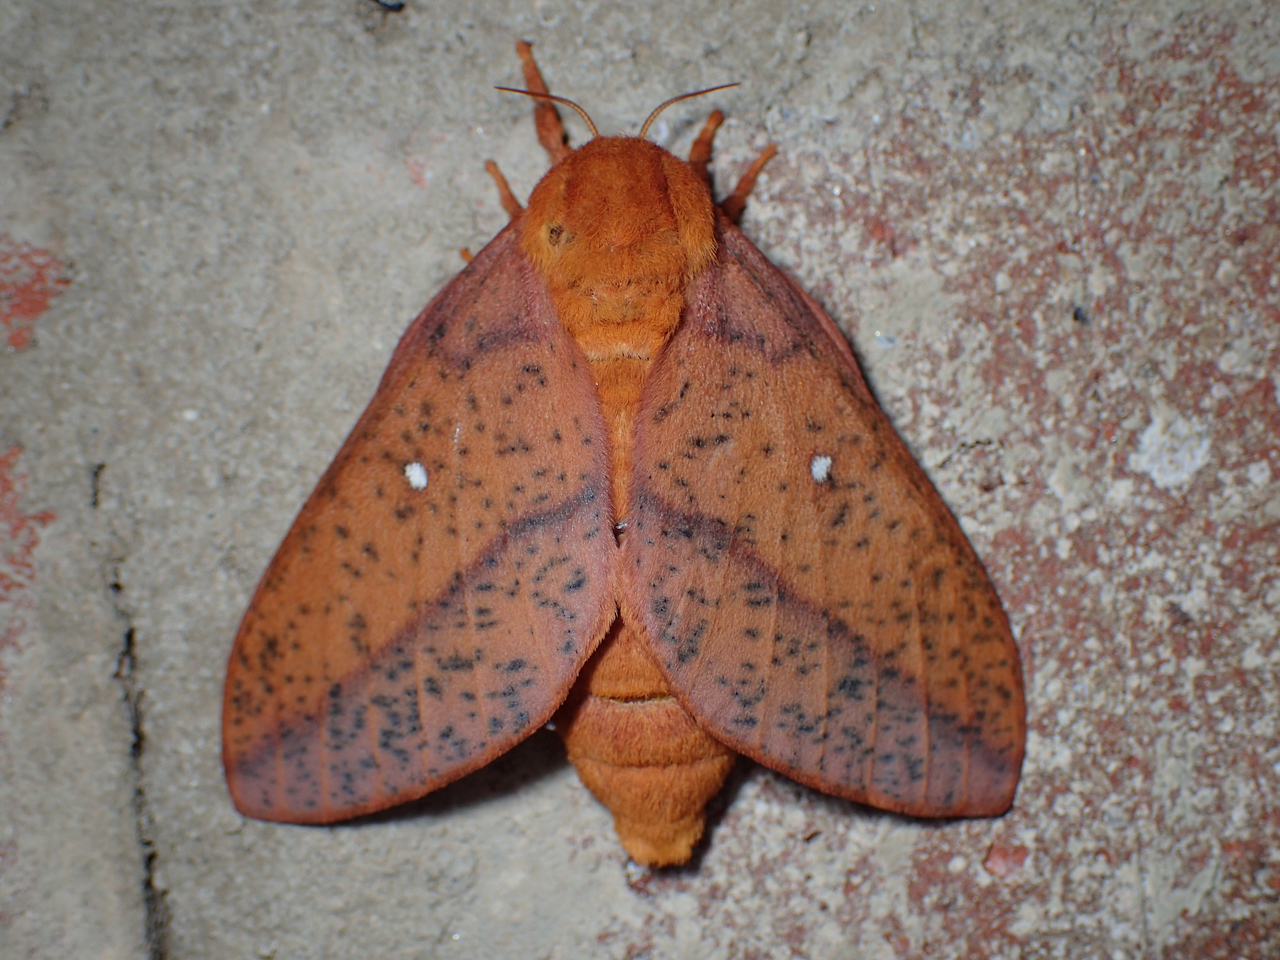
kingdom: Animalia
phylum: Arthropoda
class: Insecta
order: Lepidoptera
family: Saturniidae
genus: Anisota
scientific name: Anisota stigma
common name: Spiny oakworm moth
